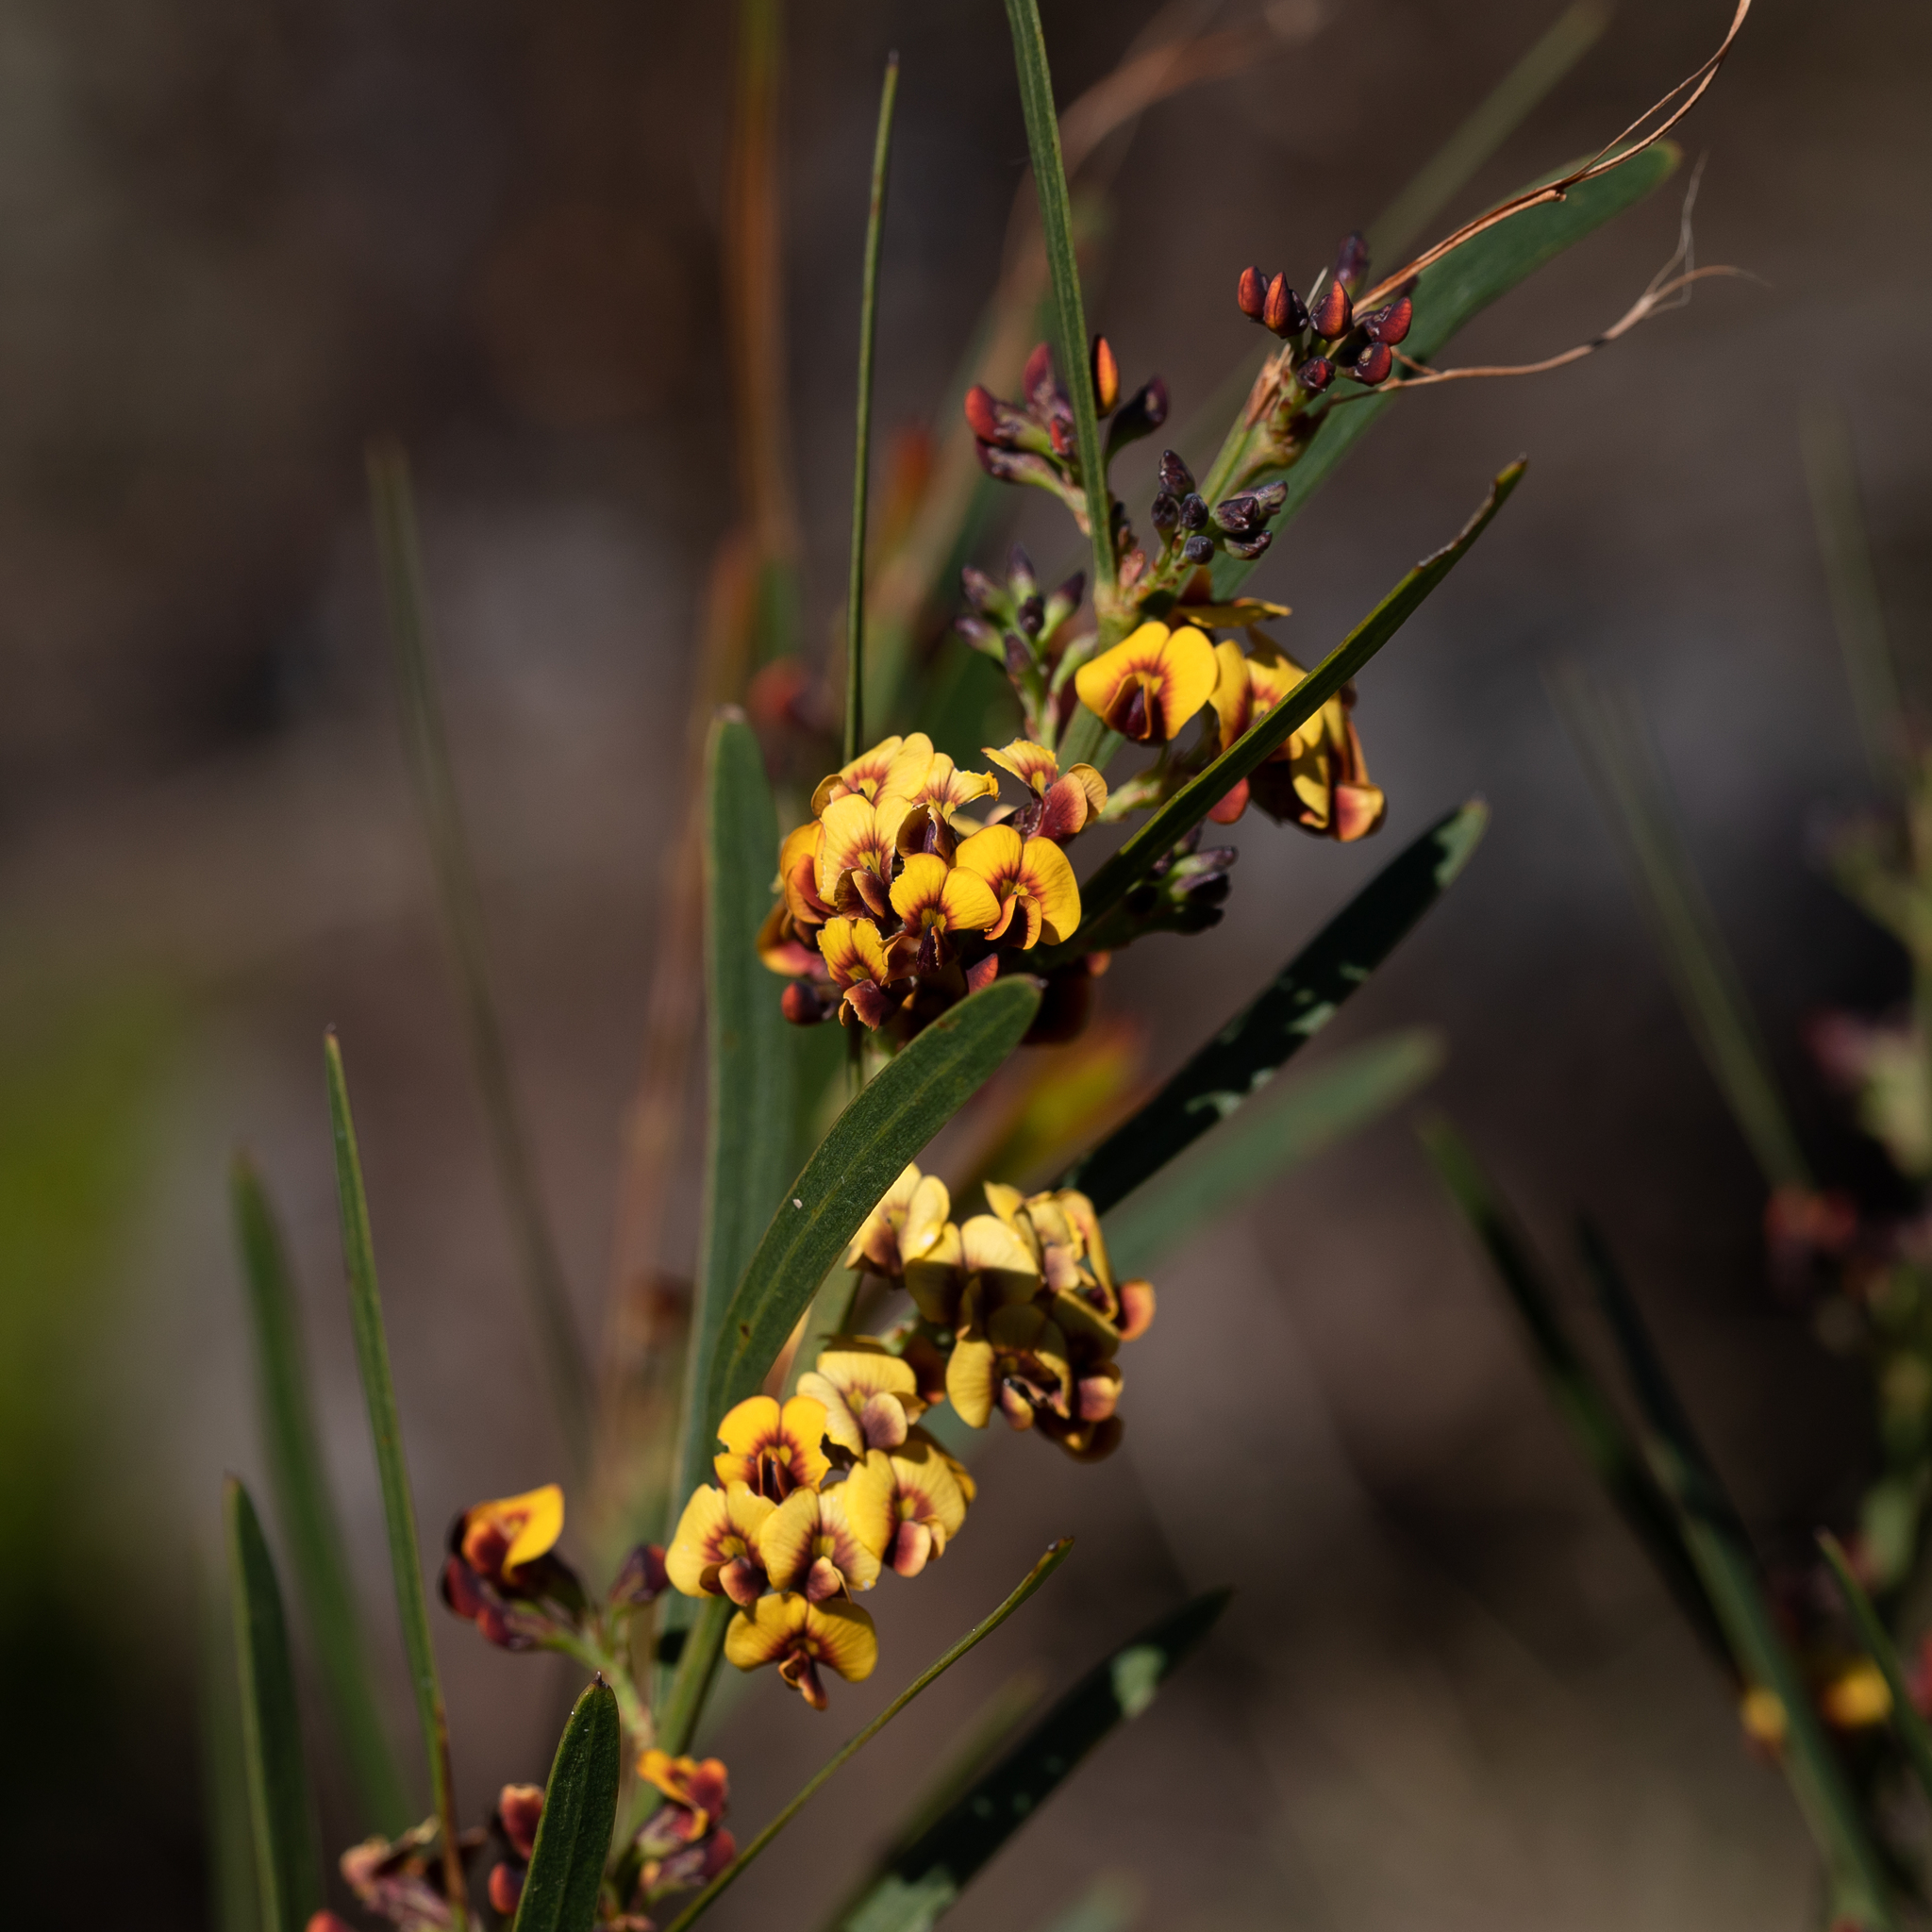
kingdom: Plantae
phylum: Tracheophyta
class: Magnoliopsida
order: Fabales
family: Fabaceae
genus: Daviesia
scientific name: Daviesia leptophylla
